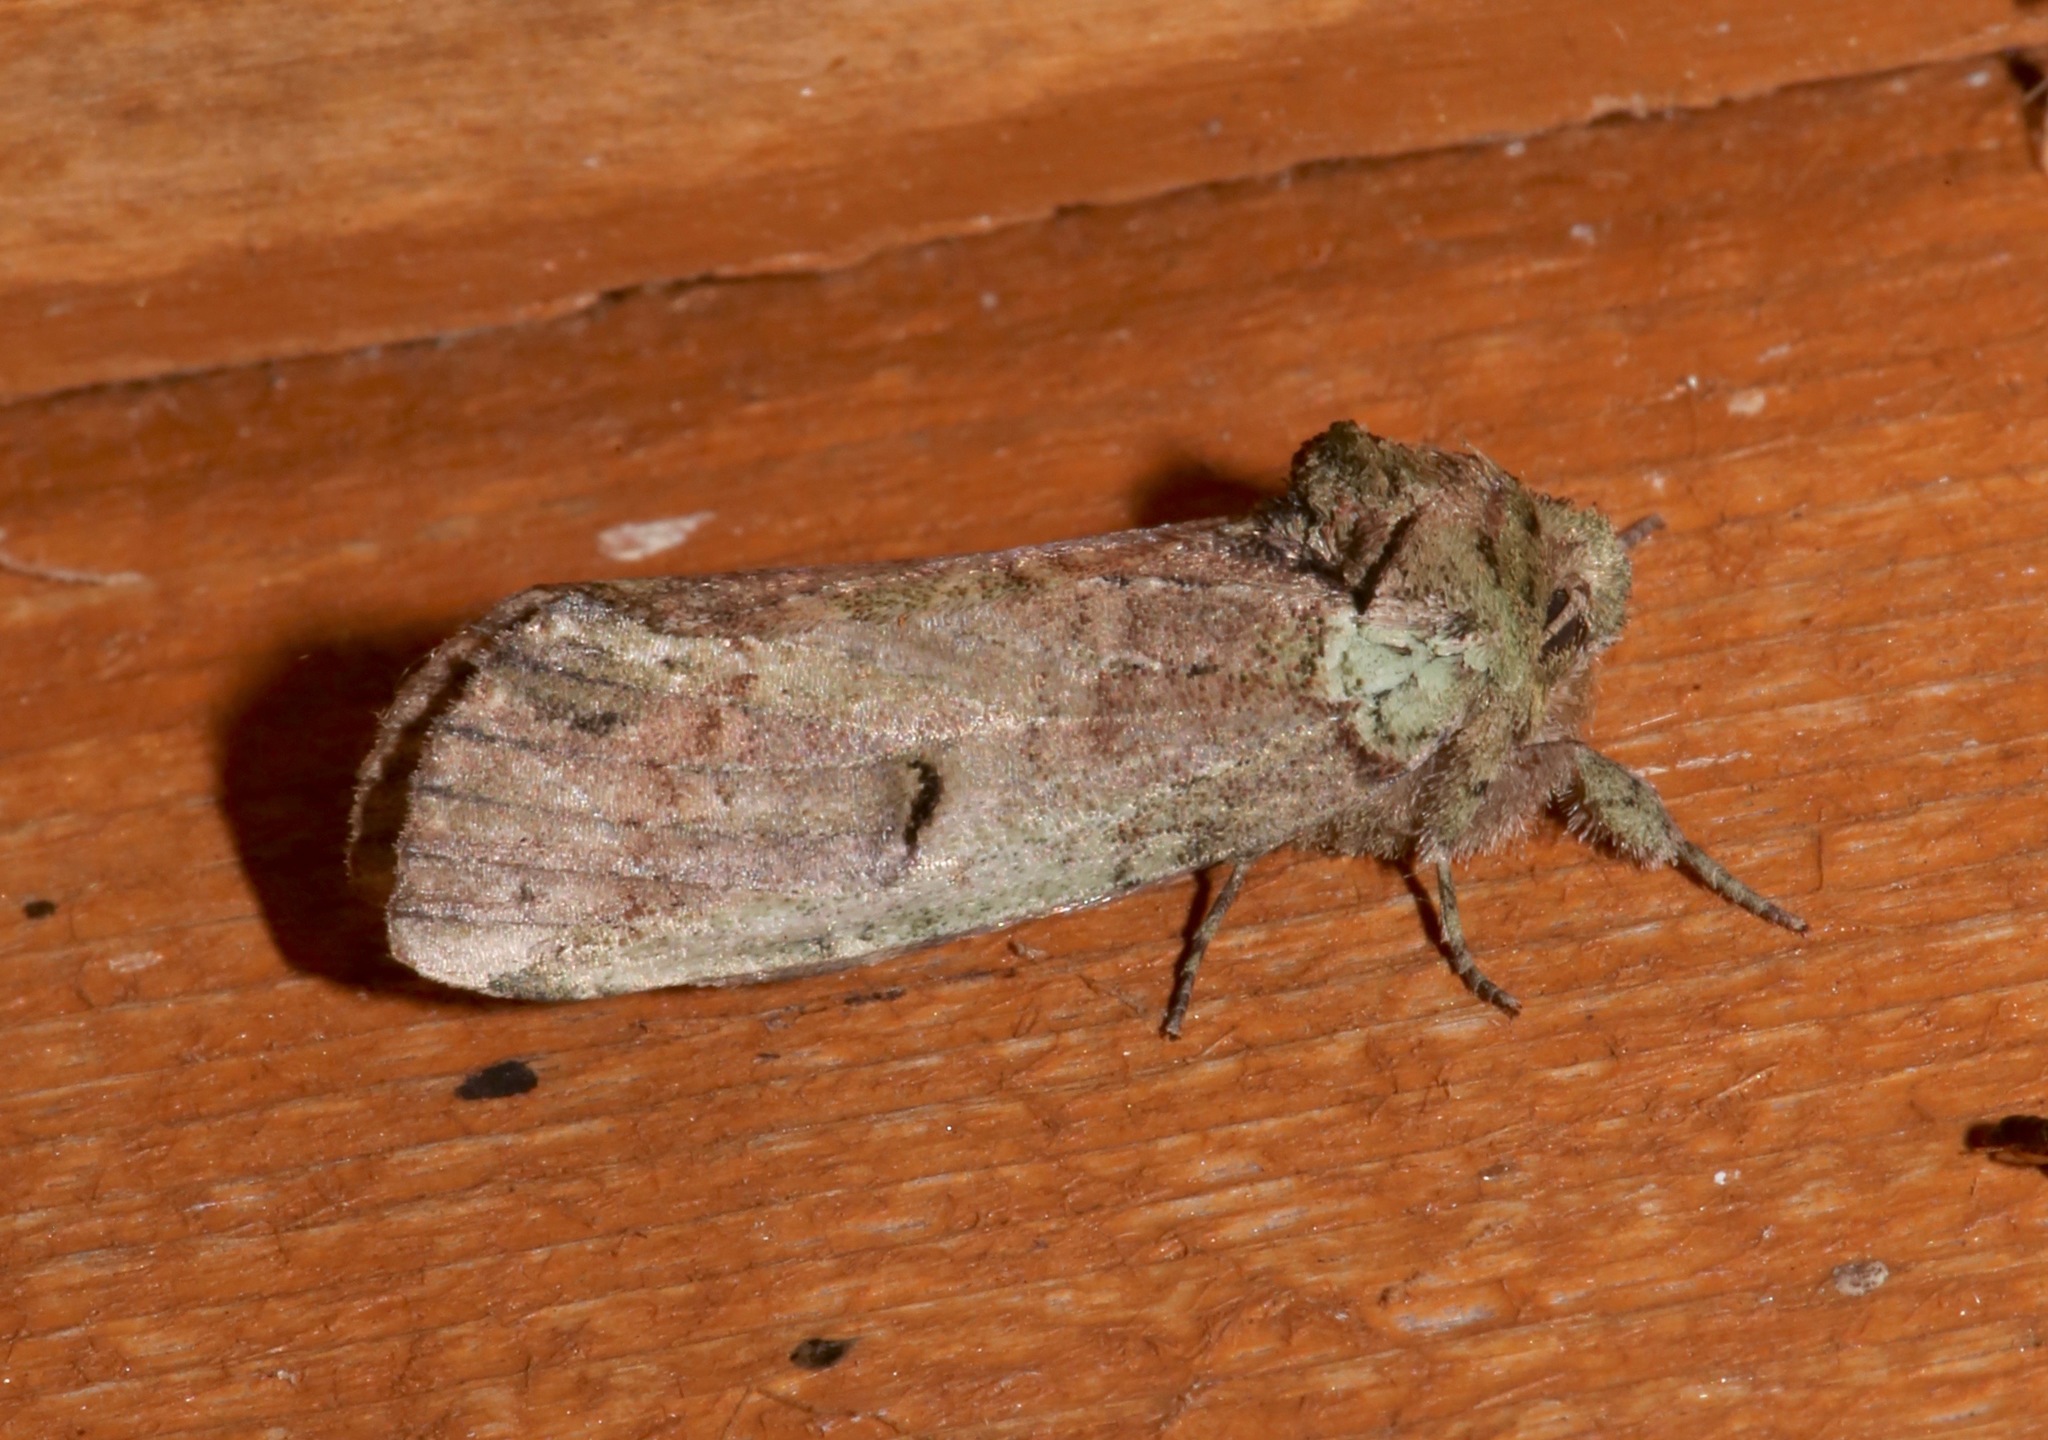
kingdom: Animalia
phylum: Arthropoda
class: Insecta
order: Lepidoptera
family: Notodontidae
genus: Schizura
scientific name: Schizura
